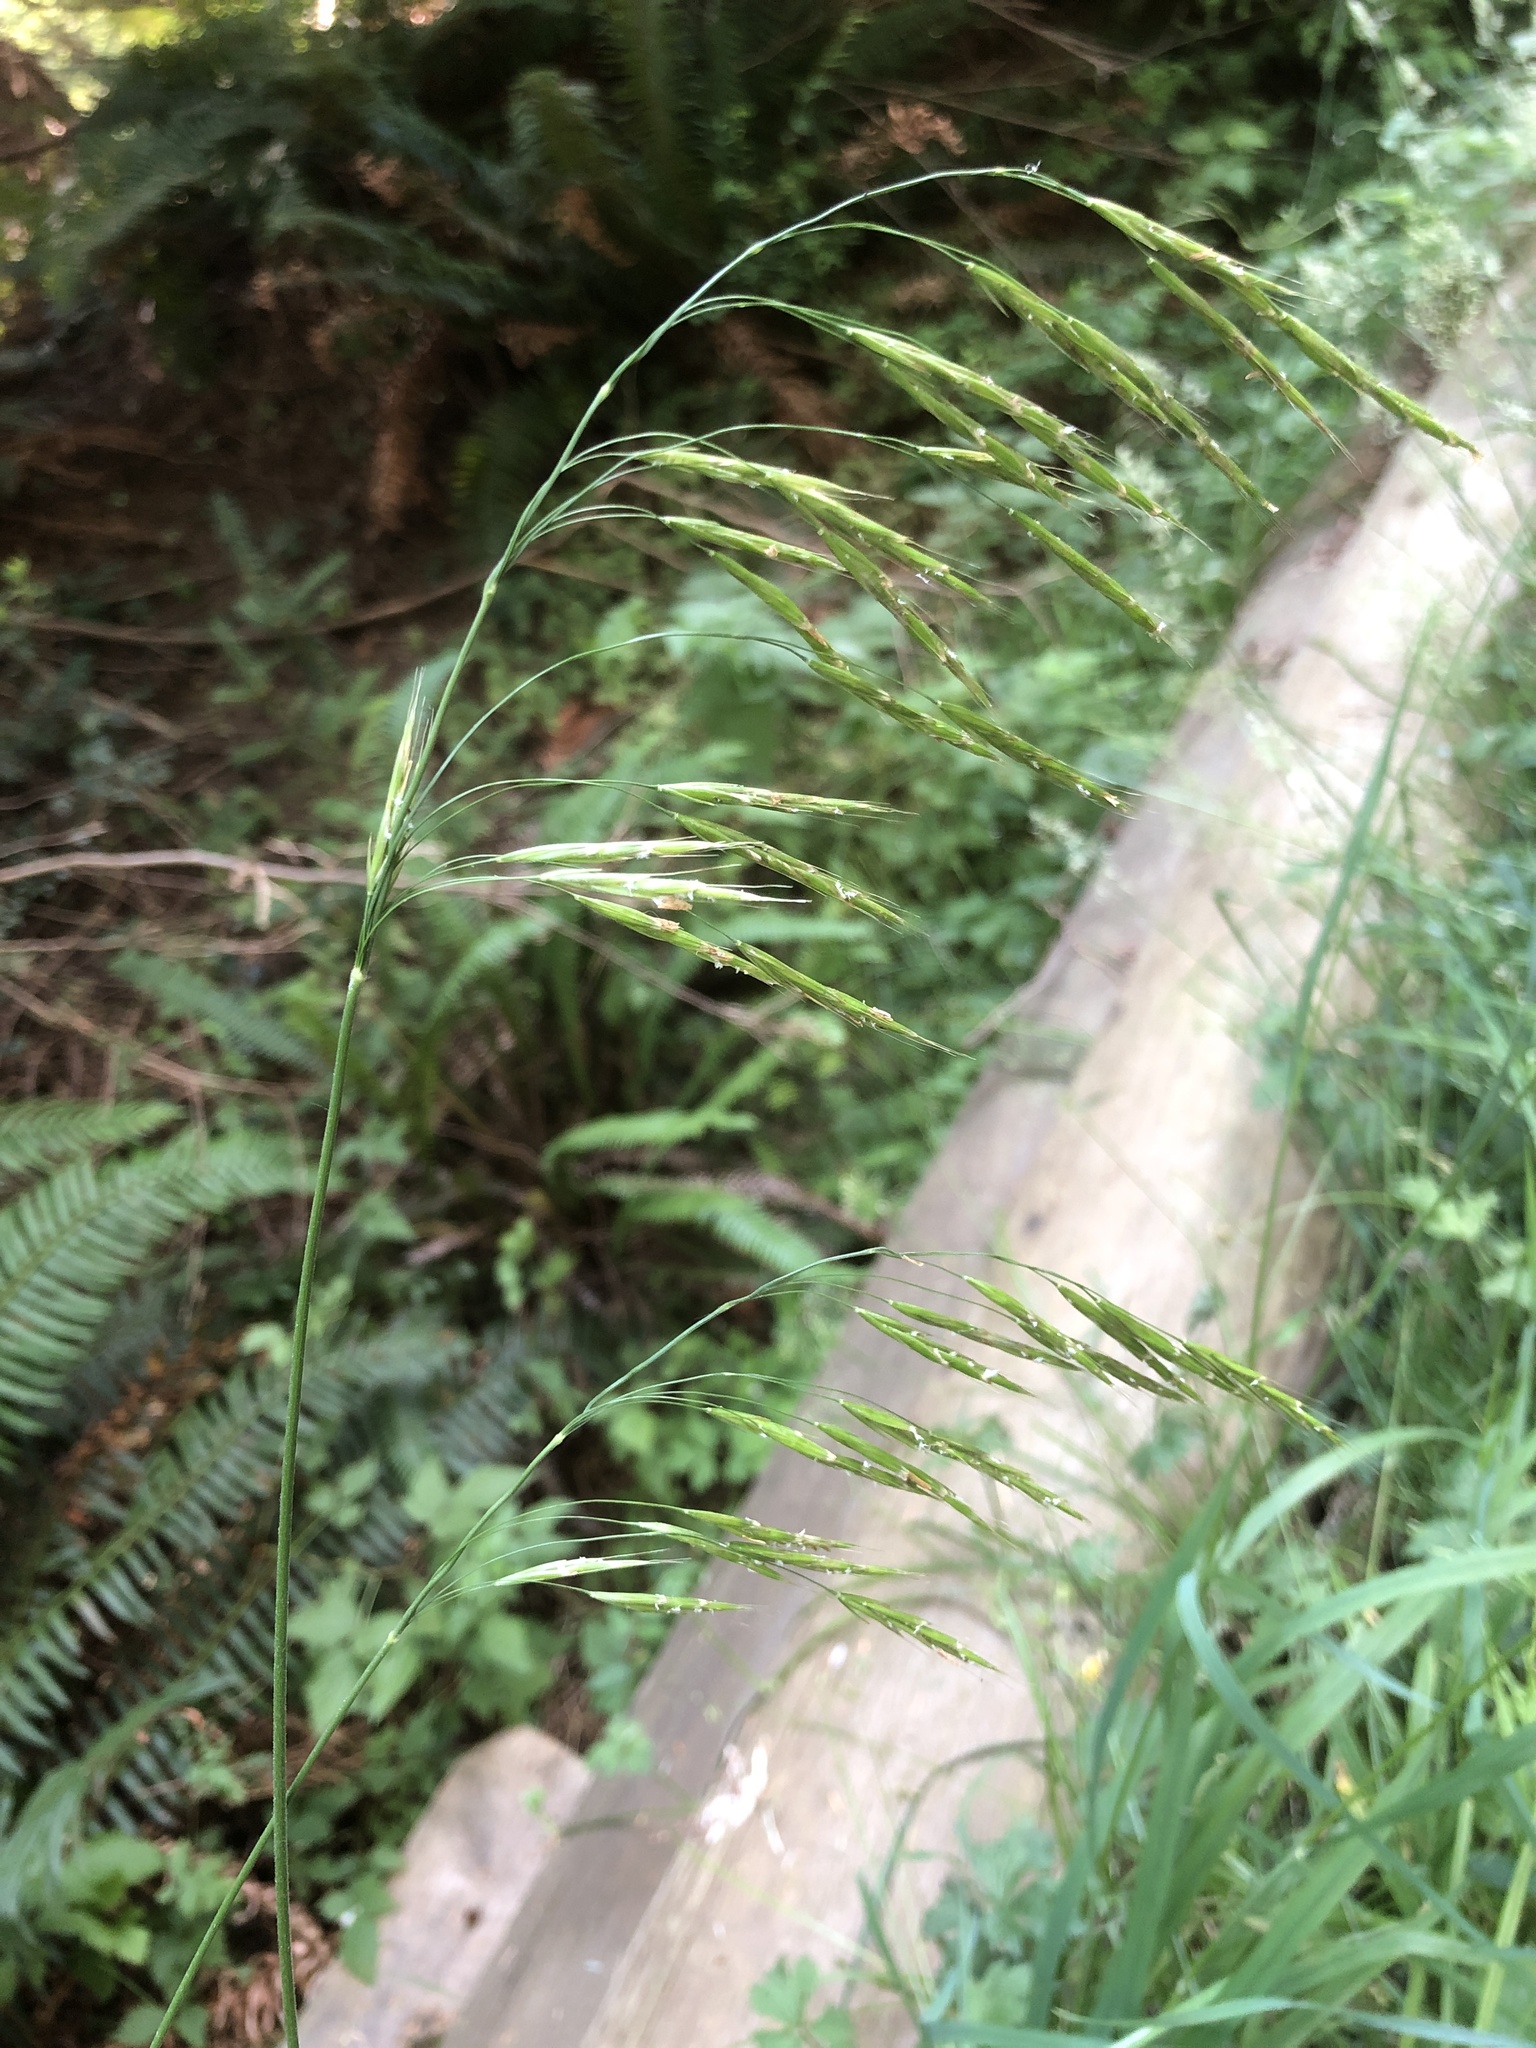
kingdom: Plantae
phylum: Tracheophyta
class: Liliopsida
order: Poales
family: Poaceae
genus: Bromus
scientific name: Bromus carinatus
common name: Mountain brome
